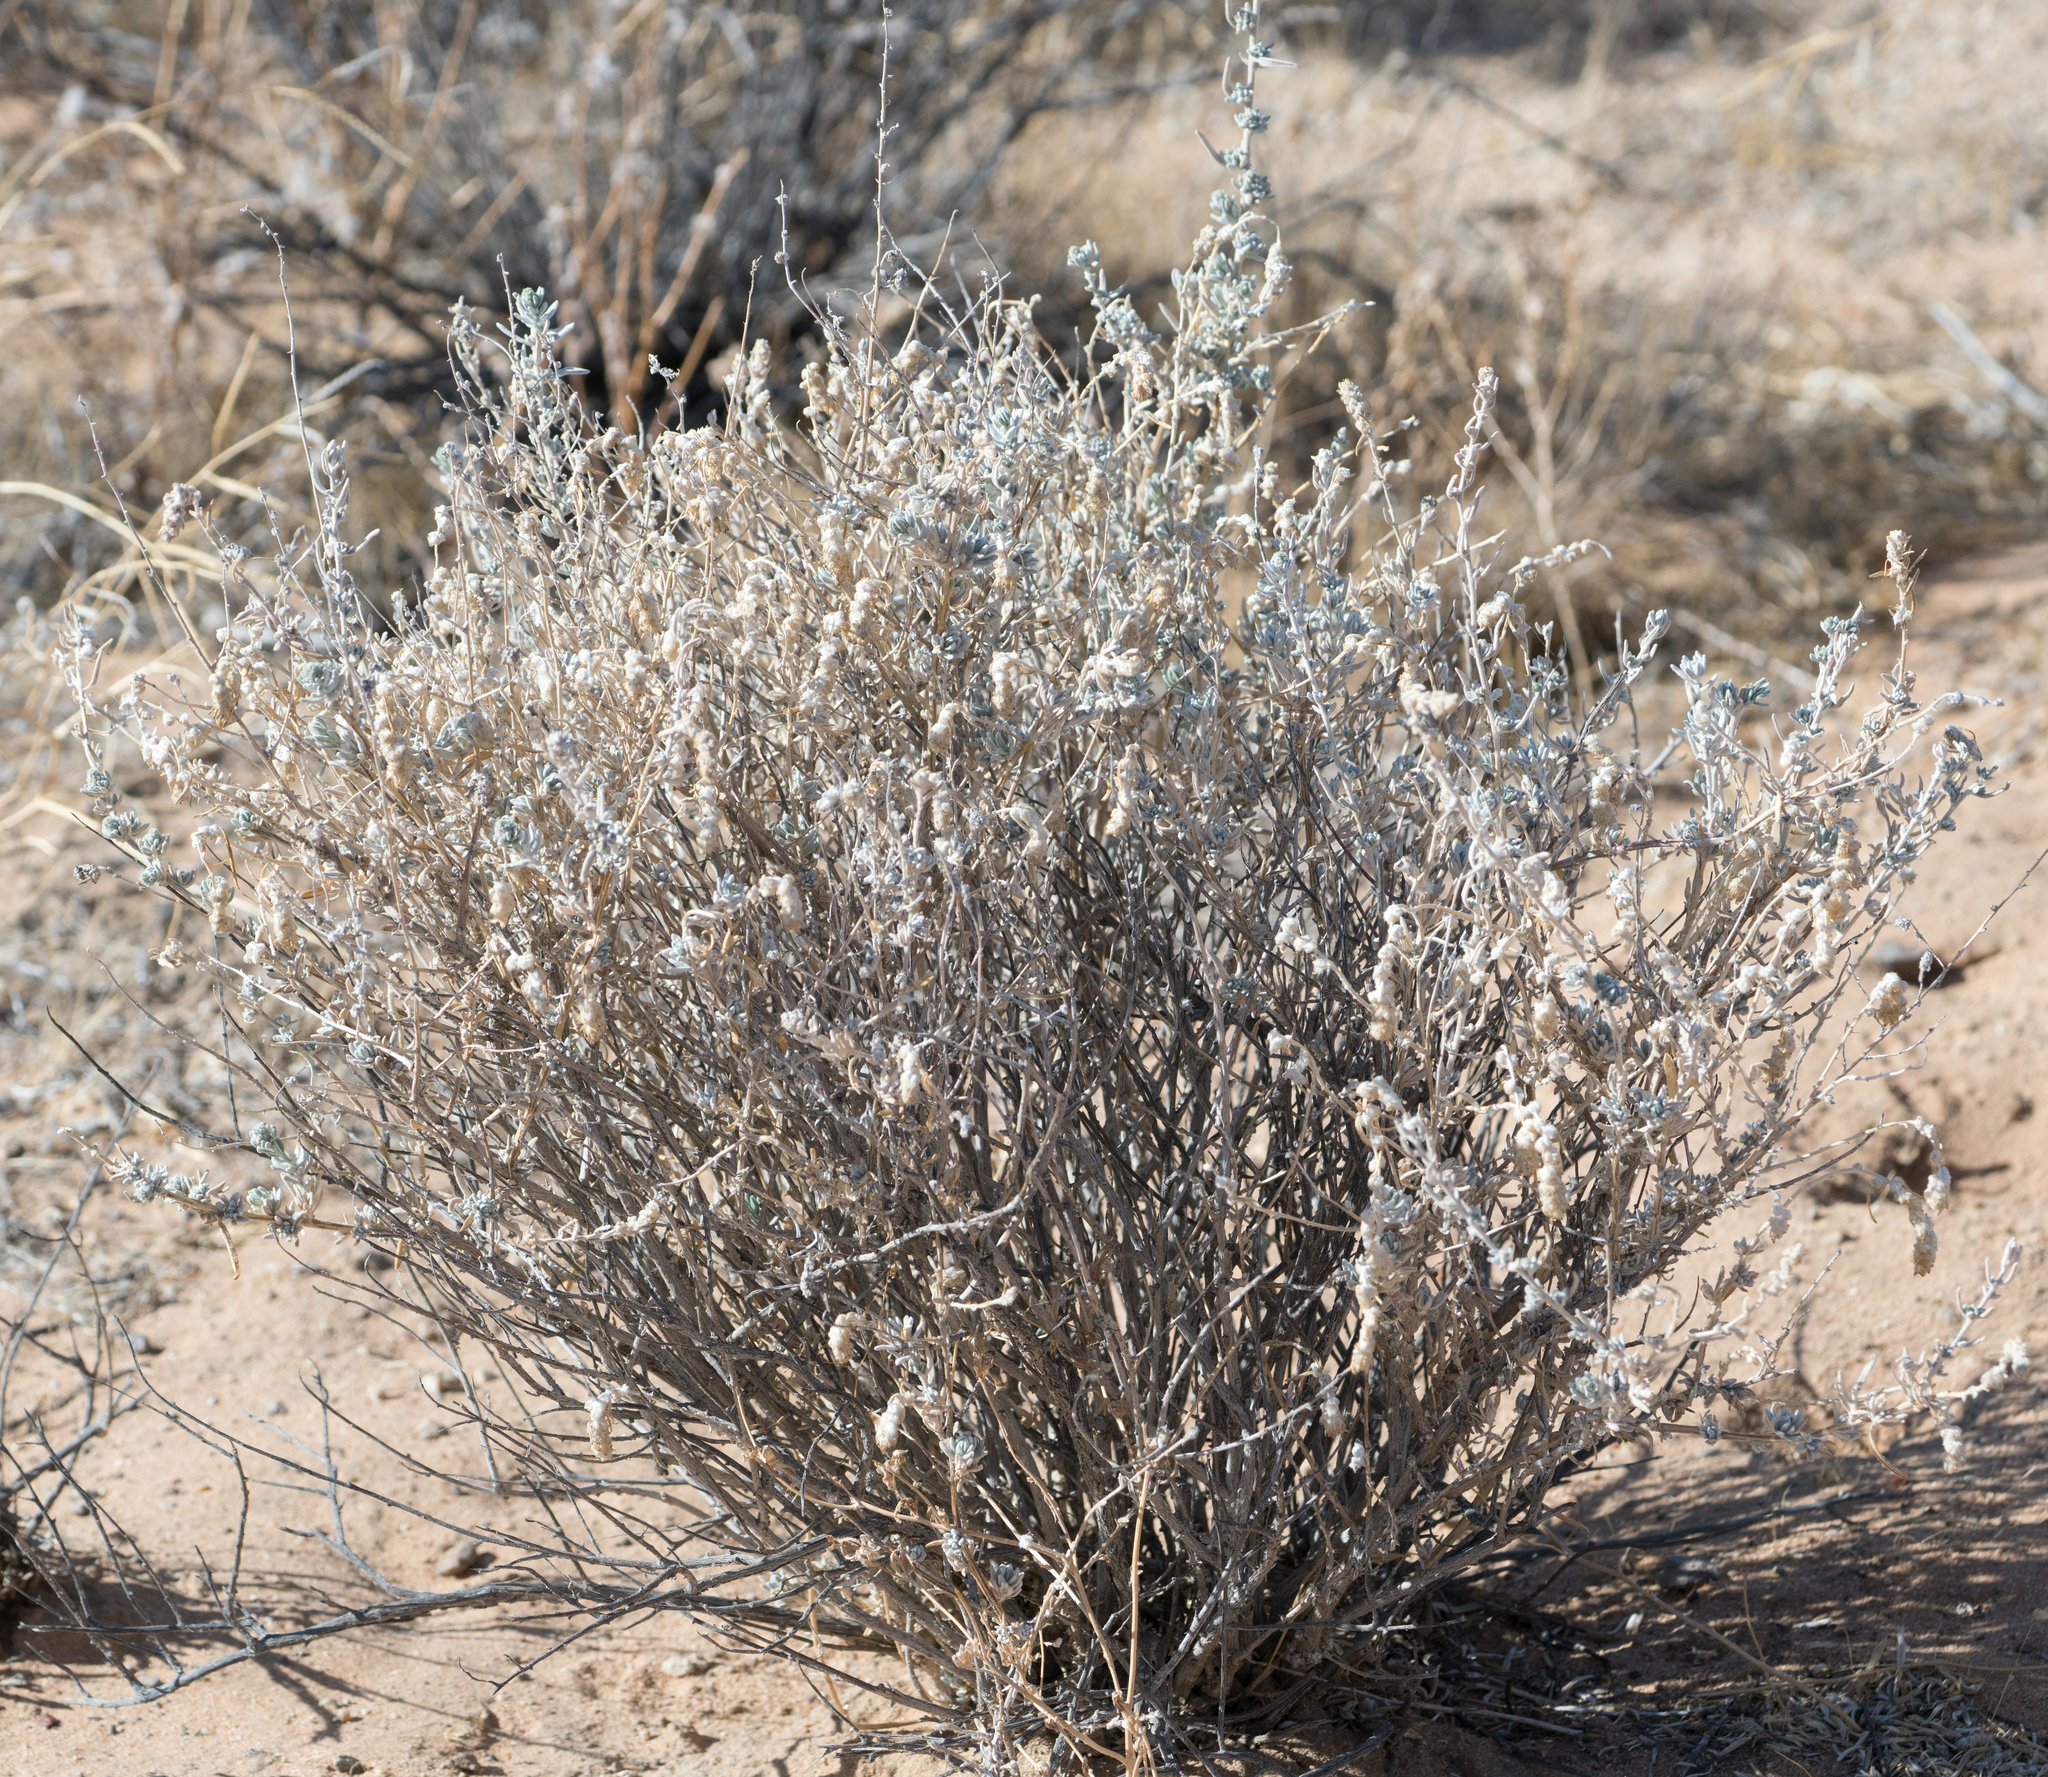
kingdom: Plantae
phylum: Tracheophyta
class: Magnoliopsida
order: Caryophyllales
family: Amaranthaceae
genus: Krascheninnikovia
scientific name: Krascheninnikovia lanata
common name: Winterfat
